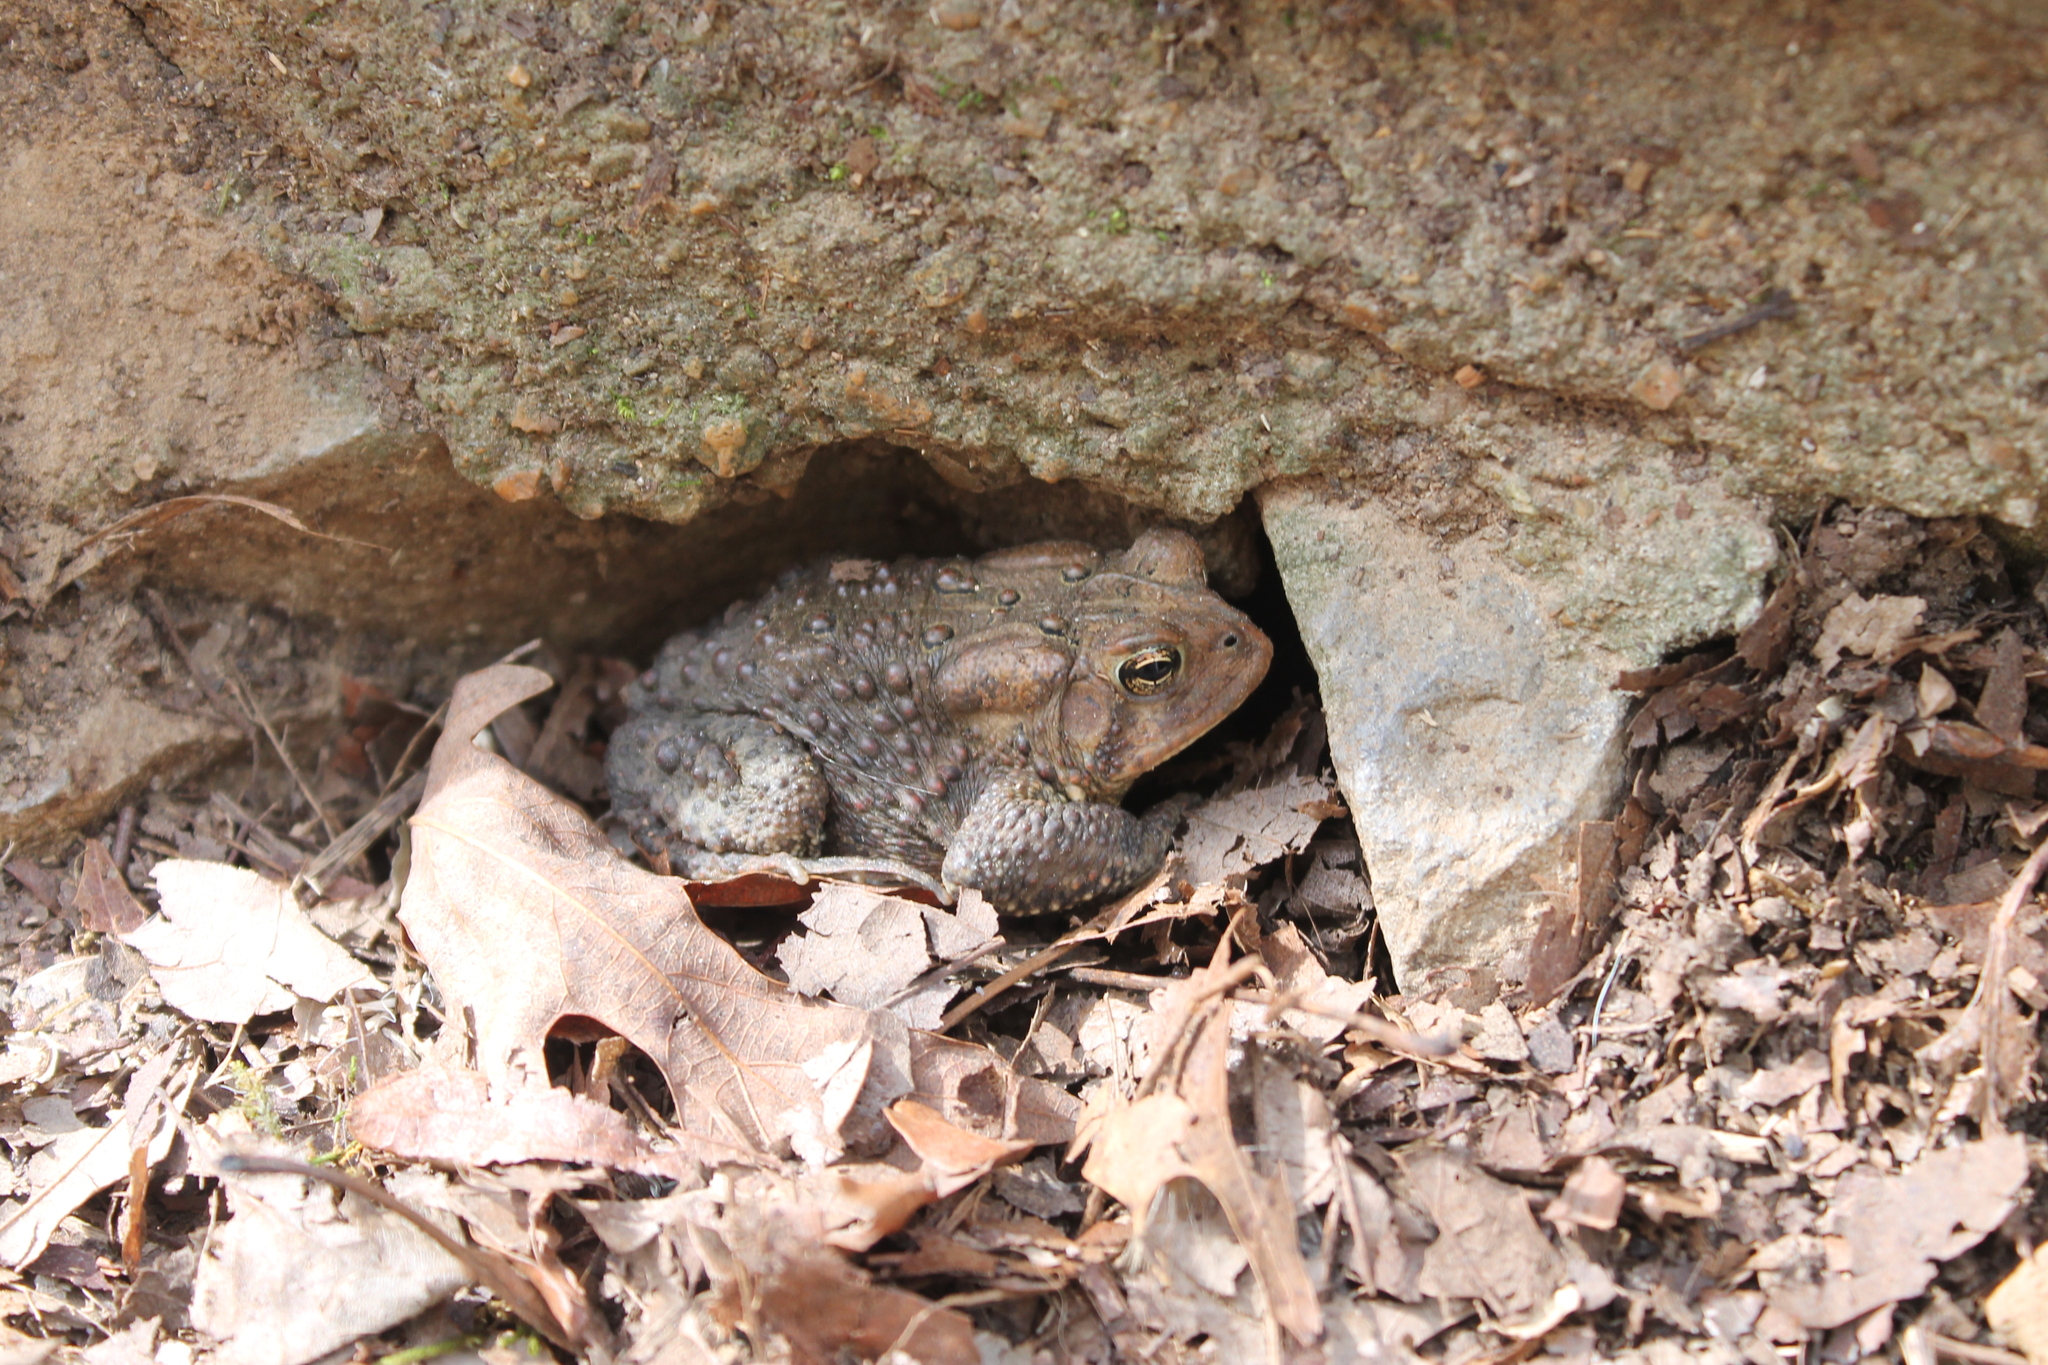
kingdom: Animalia
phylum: Chordata
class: Amphibia
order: Anura
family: Bufonidae
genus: Anaxyrus
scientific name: Anaxyrus americanus
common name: American toad
